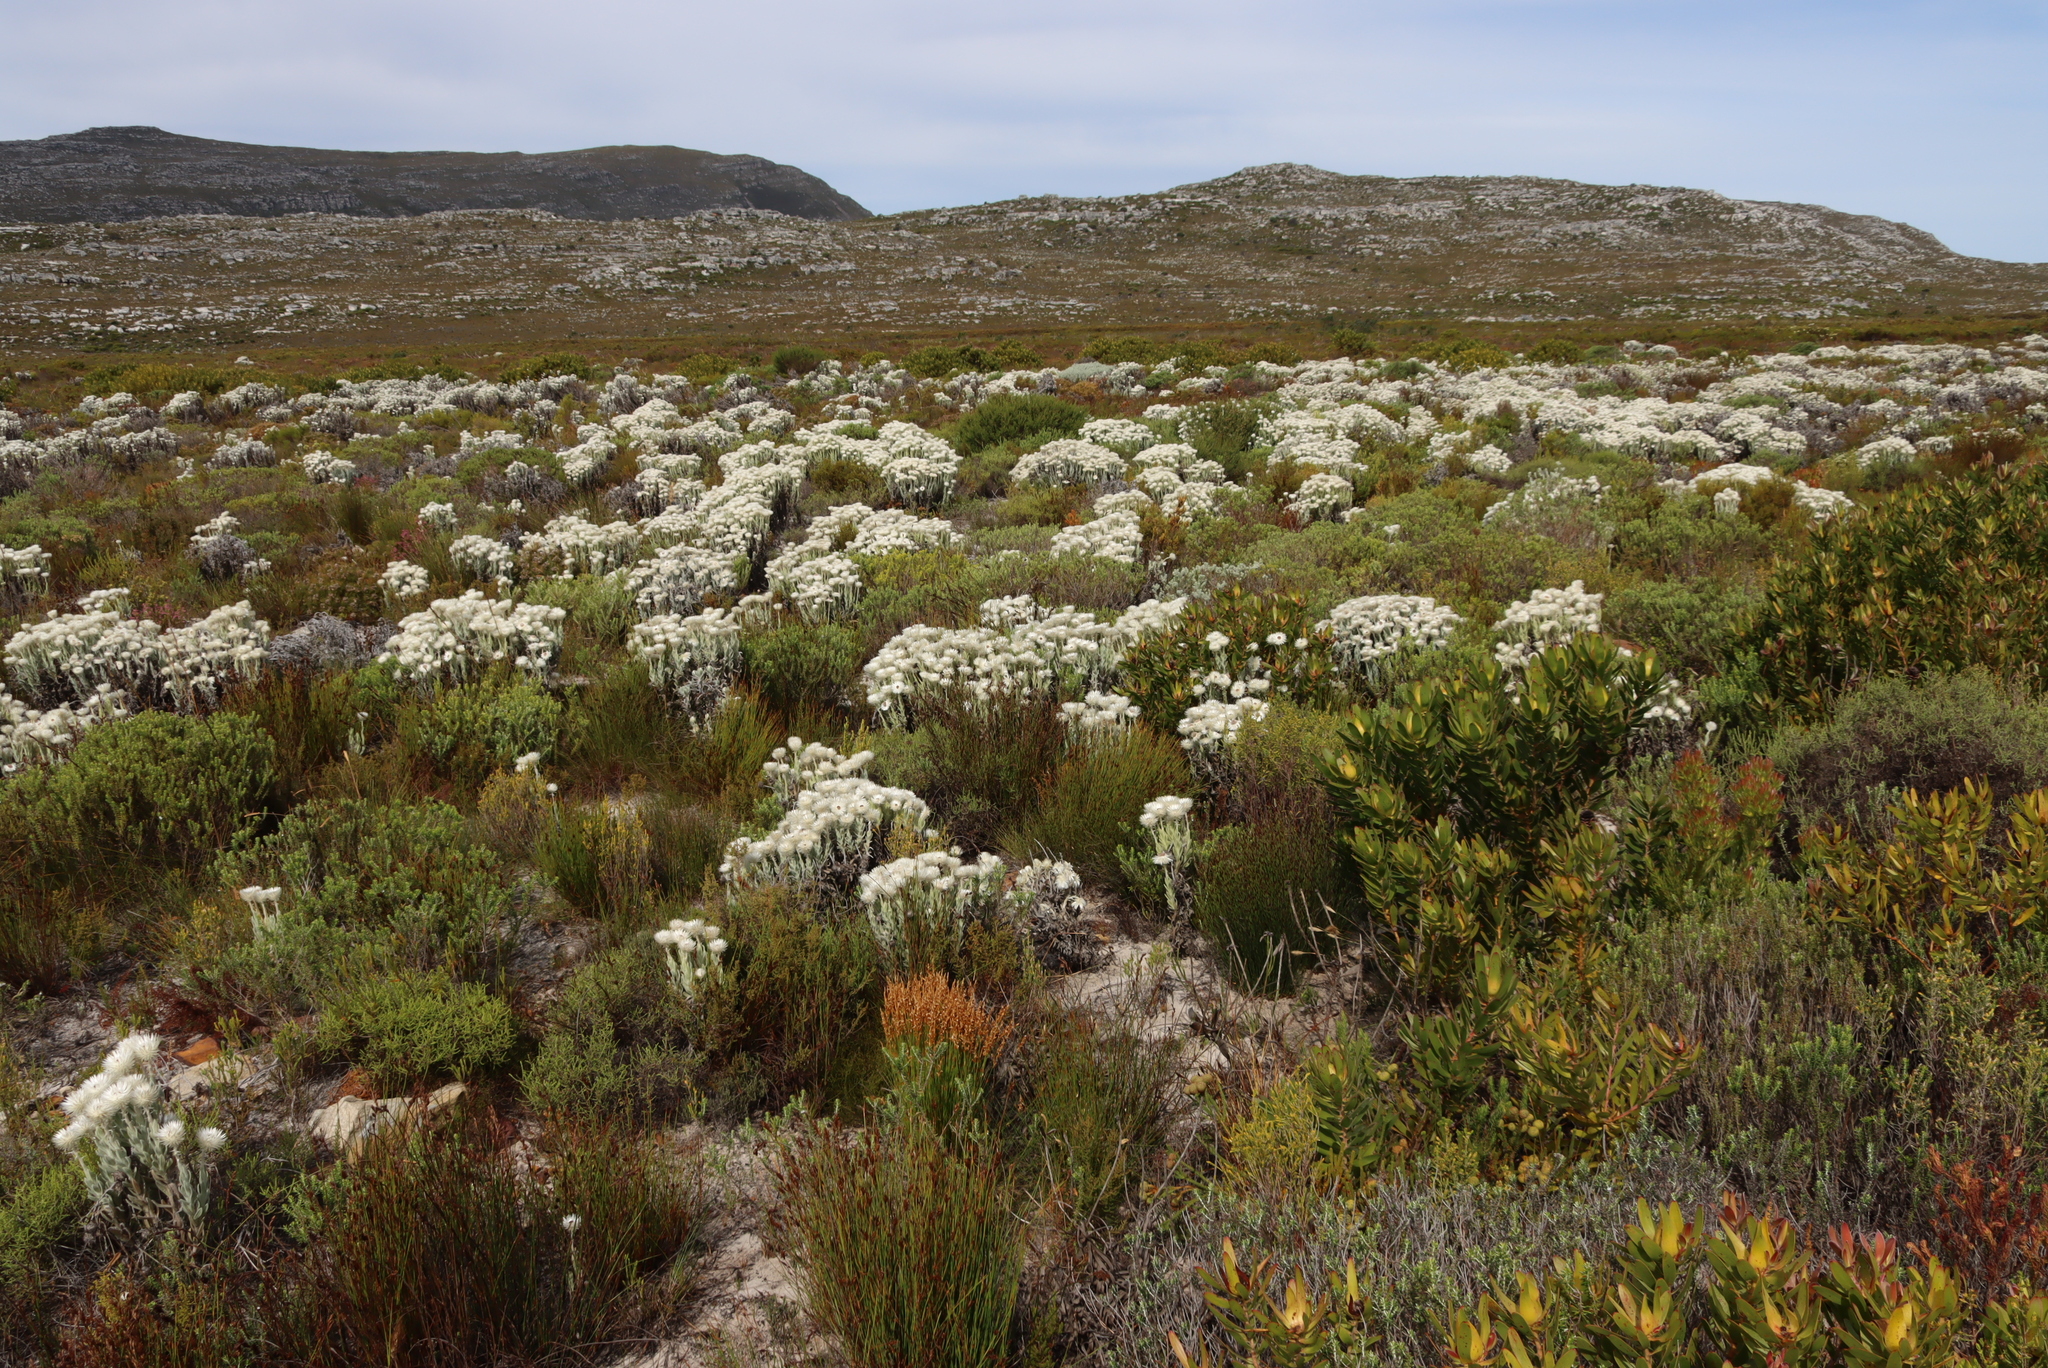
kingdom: Plantae
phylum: Tracheophyta
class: Magnoliopsida
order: Asterales
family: Asteraceae
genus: Syncarpha
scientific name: Syncarpha vestita
